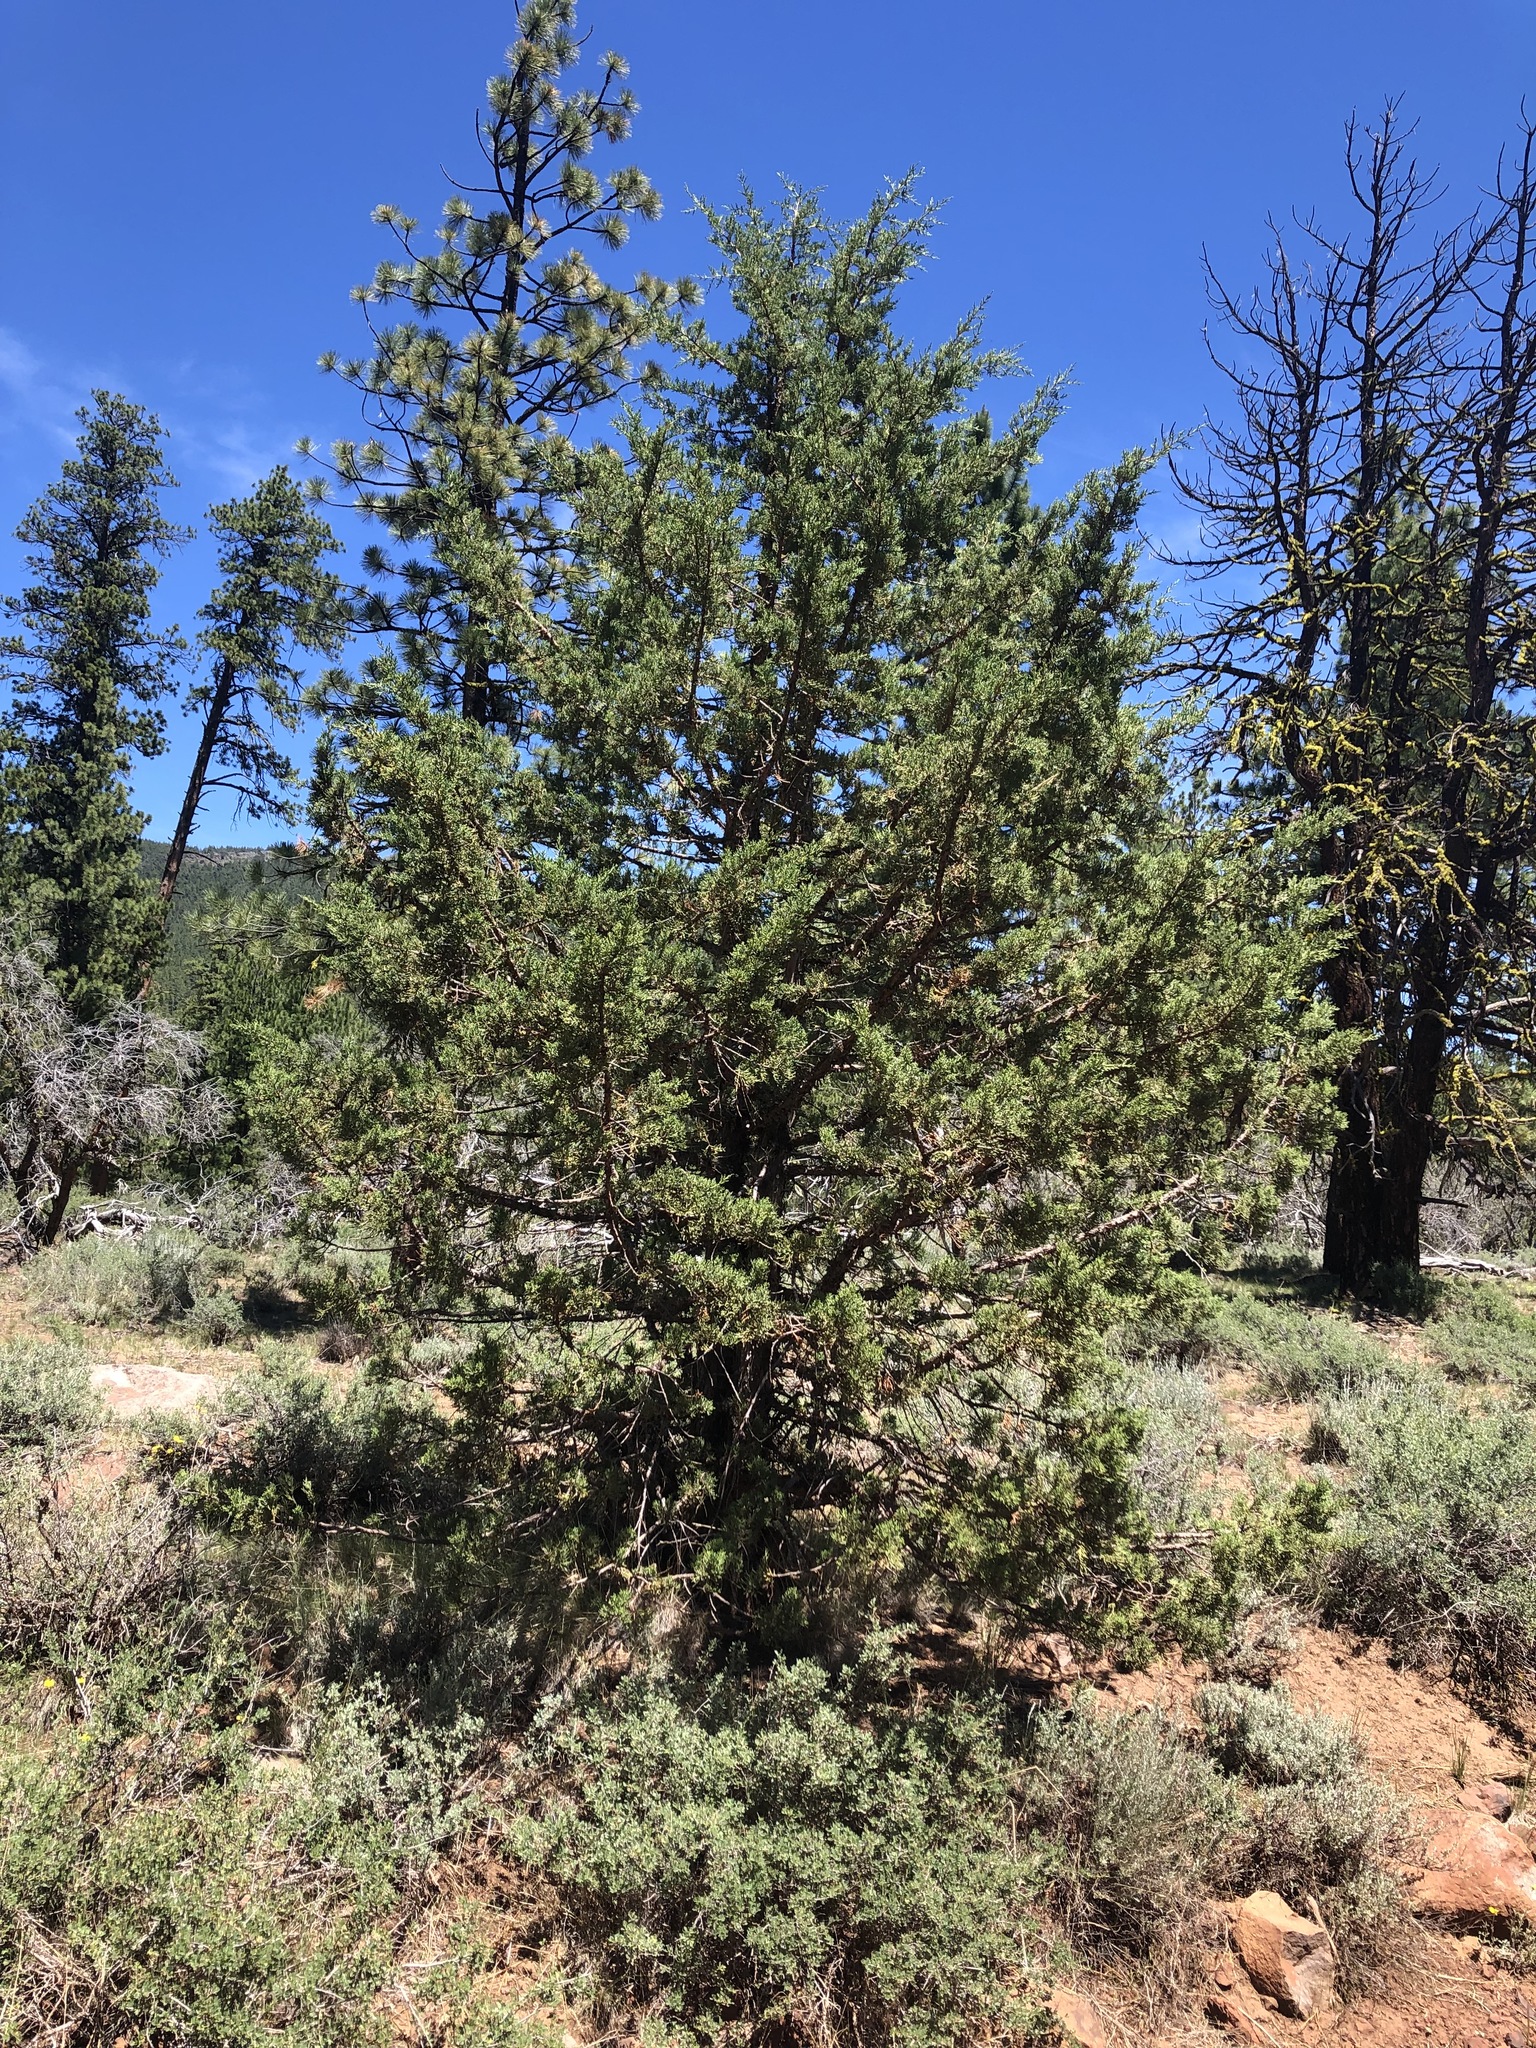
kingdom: Plantae
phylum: Tracheophyta
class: Pinopsida
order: Pinales
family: Cupressaceae
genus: Juniperus
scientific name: Juniperus occidentalis
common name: Western juniper
